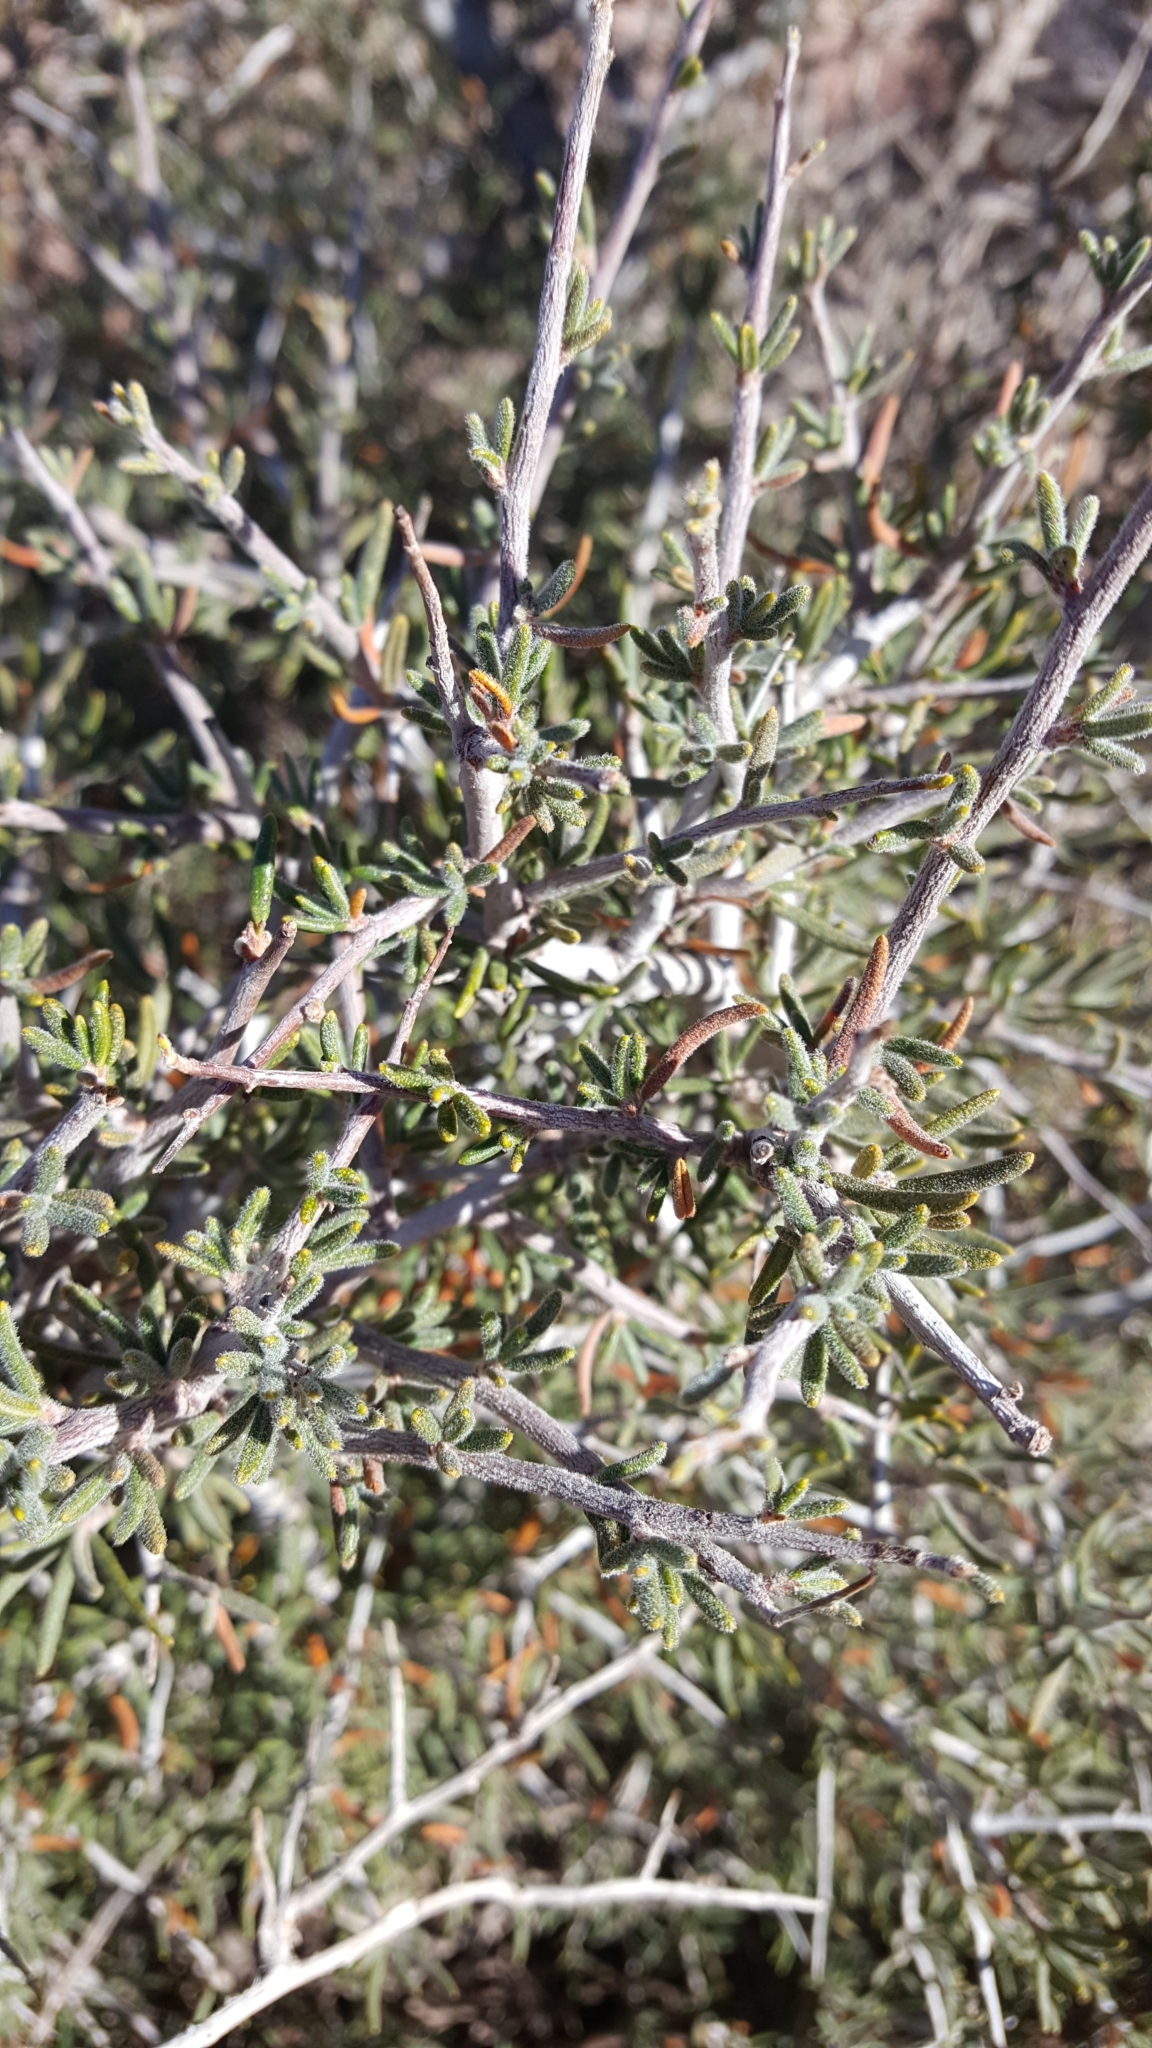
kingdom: Plantae
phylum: Tracheophyta
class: Magnoliopsida
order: Rosales
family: Rosaceae
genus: Prunus
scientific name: Prunus fasciculata
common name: Desert almond
